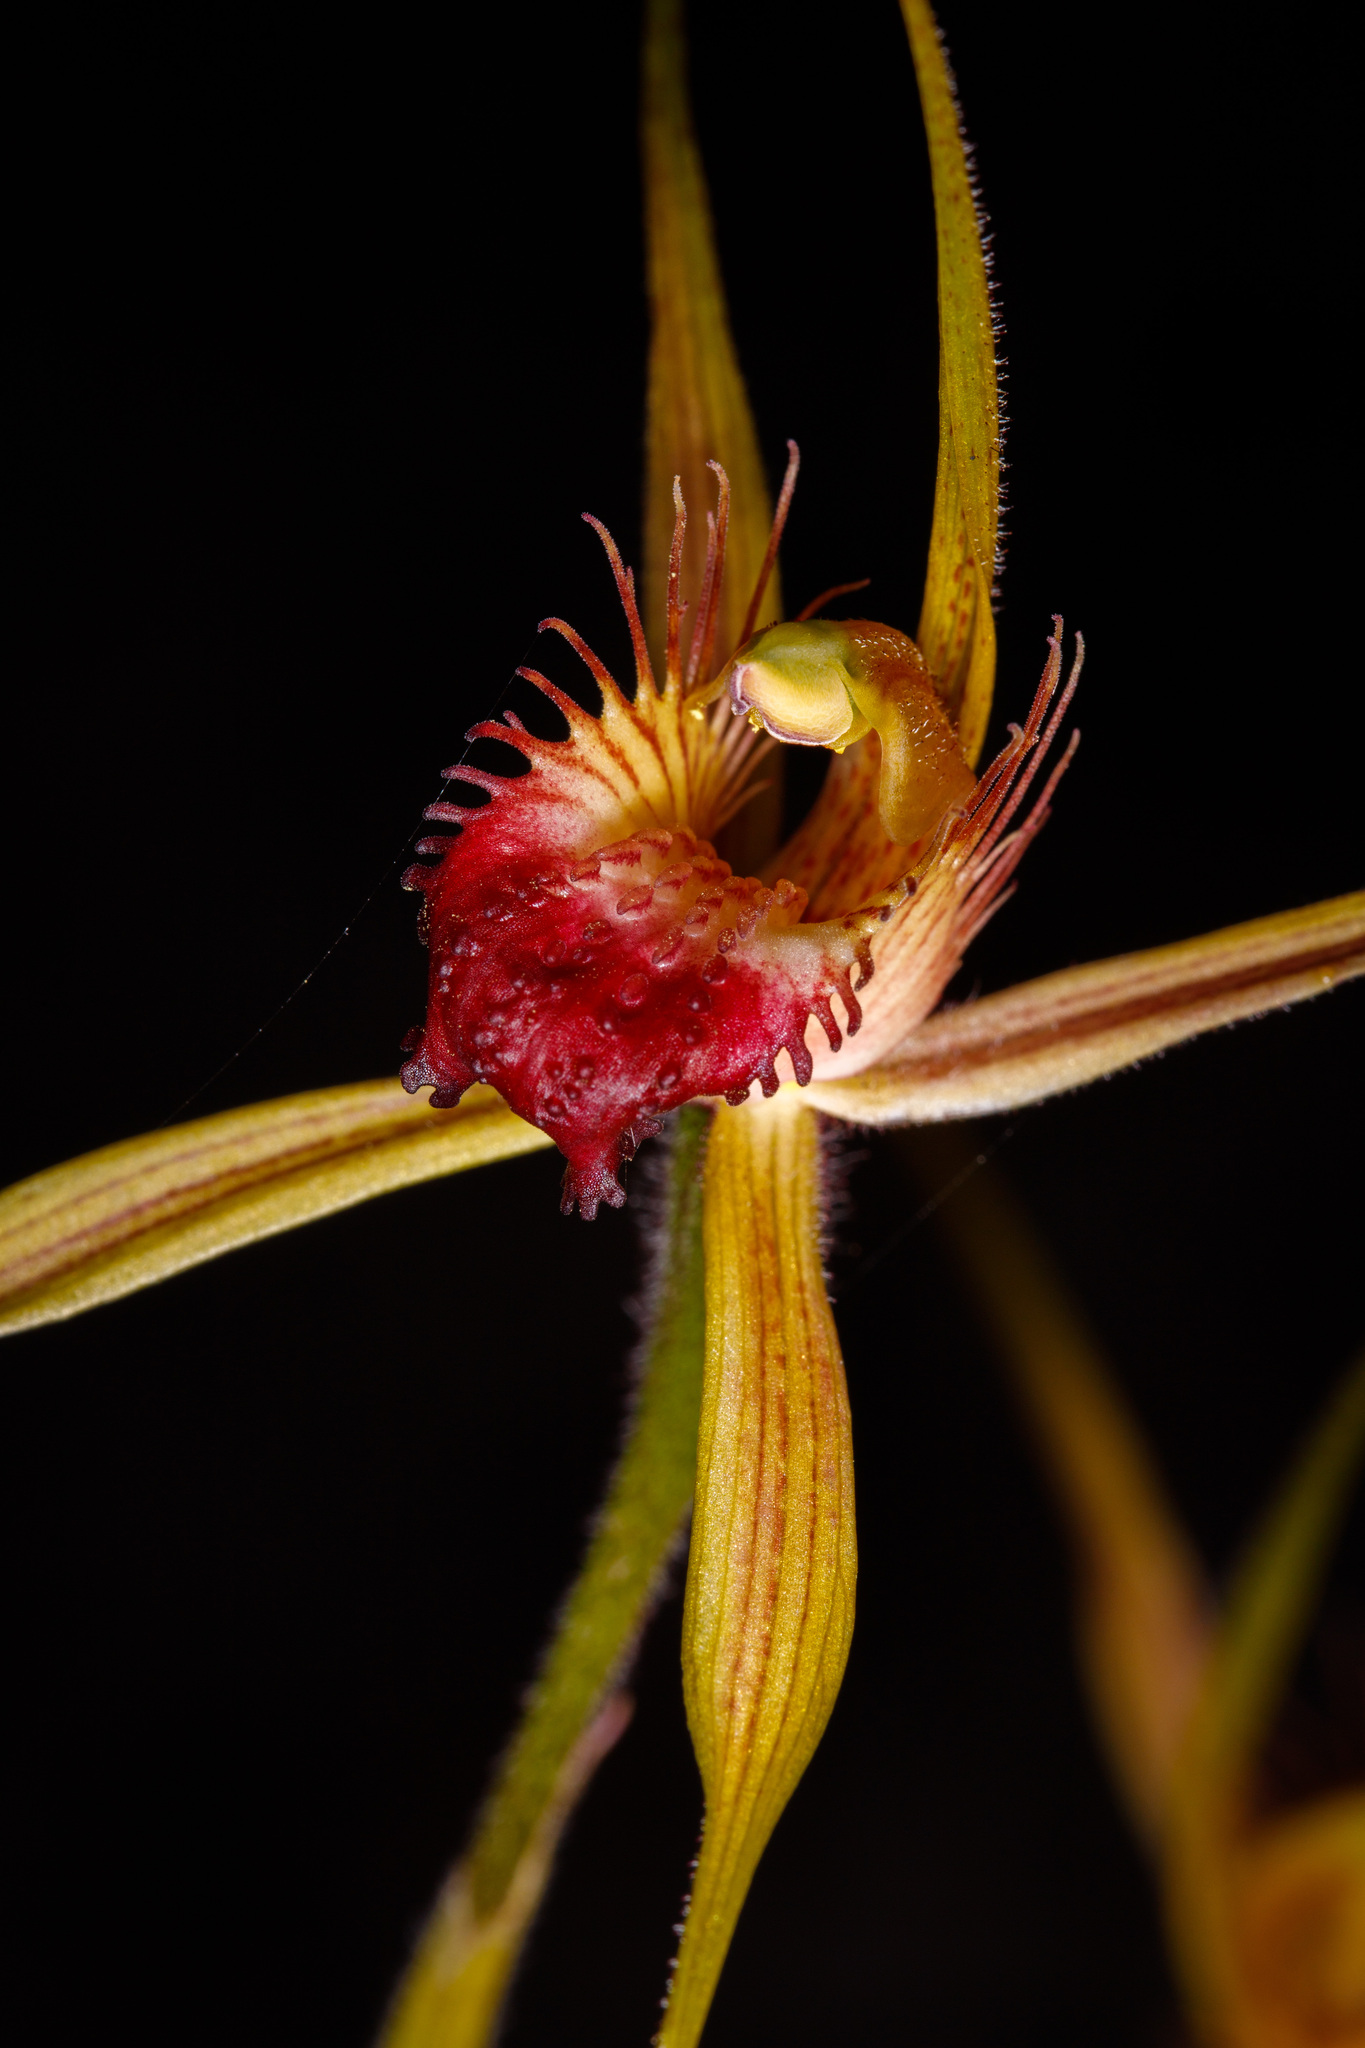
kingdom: Plantae
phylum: Tracheophyta
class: Liliopsida
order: Asparagales
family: Orchidaceae
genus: Caladenia
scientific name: Caladenia pectinata
